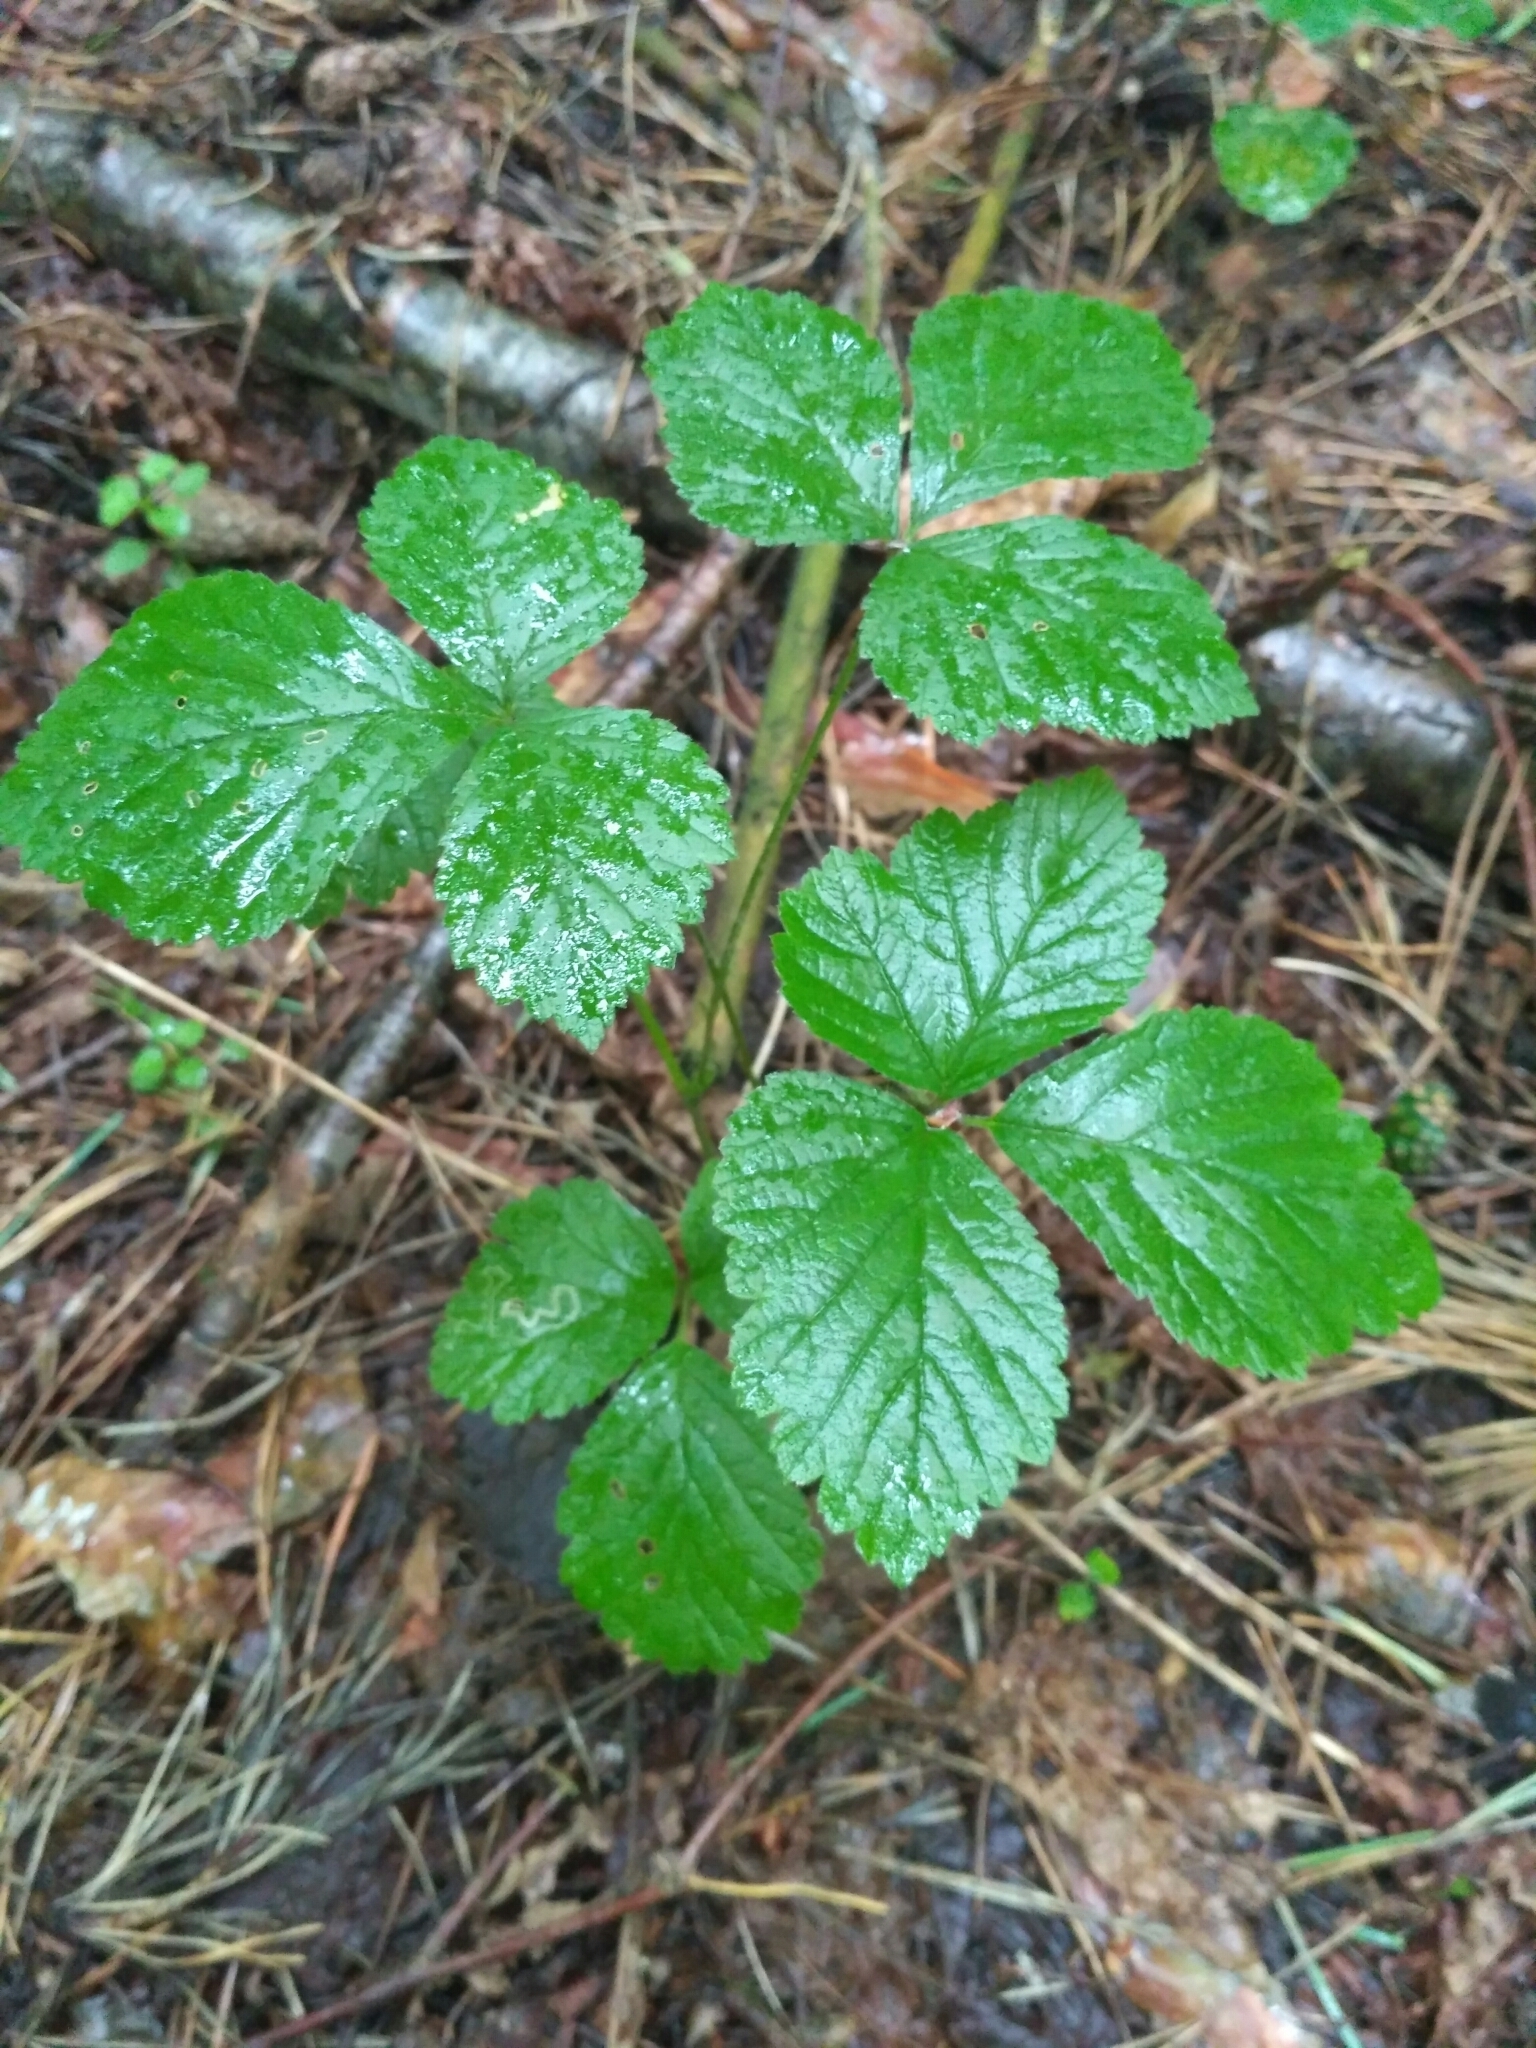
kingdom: Plantae
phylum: Tracheophyta
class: Magnoliopsida
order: Rosales
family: Rosaceae
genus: Rubus
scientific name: Rubus saxatilis
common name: Stone bramble
